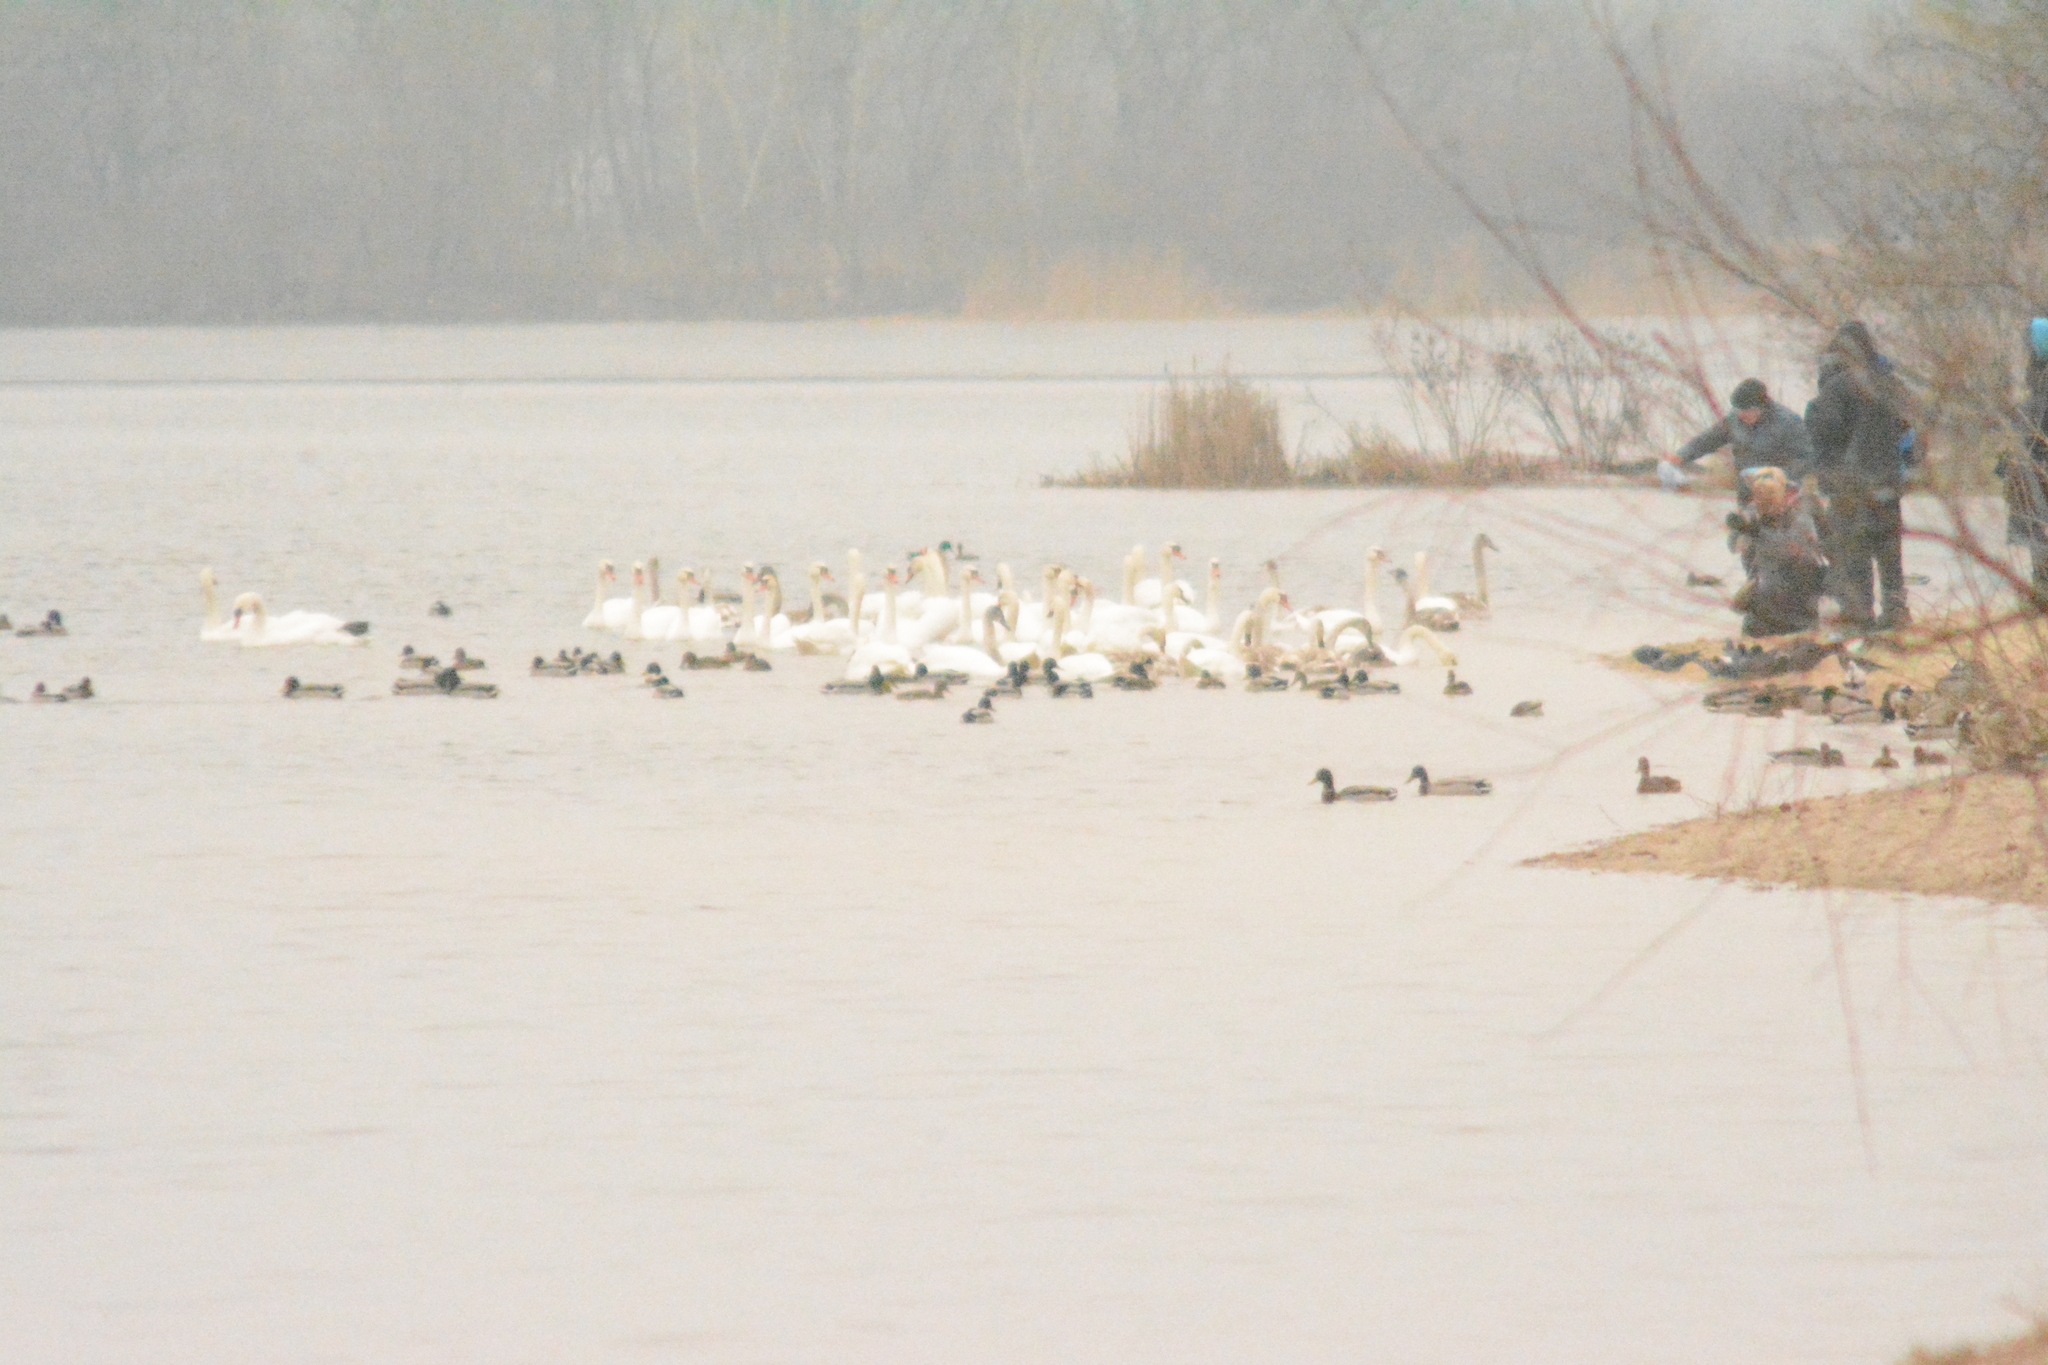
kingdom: Animalia
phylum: Chordata
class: Aves
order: Anseriformes
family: Anatidae
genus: Cygnus
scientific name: Cygnus olor
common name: Mute swan
